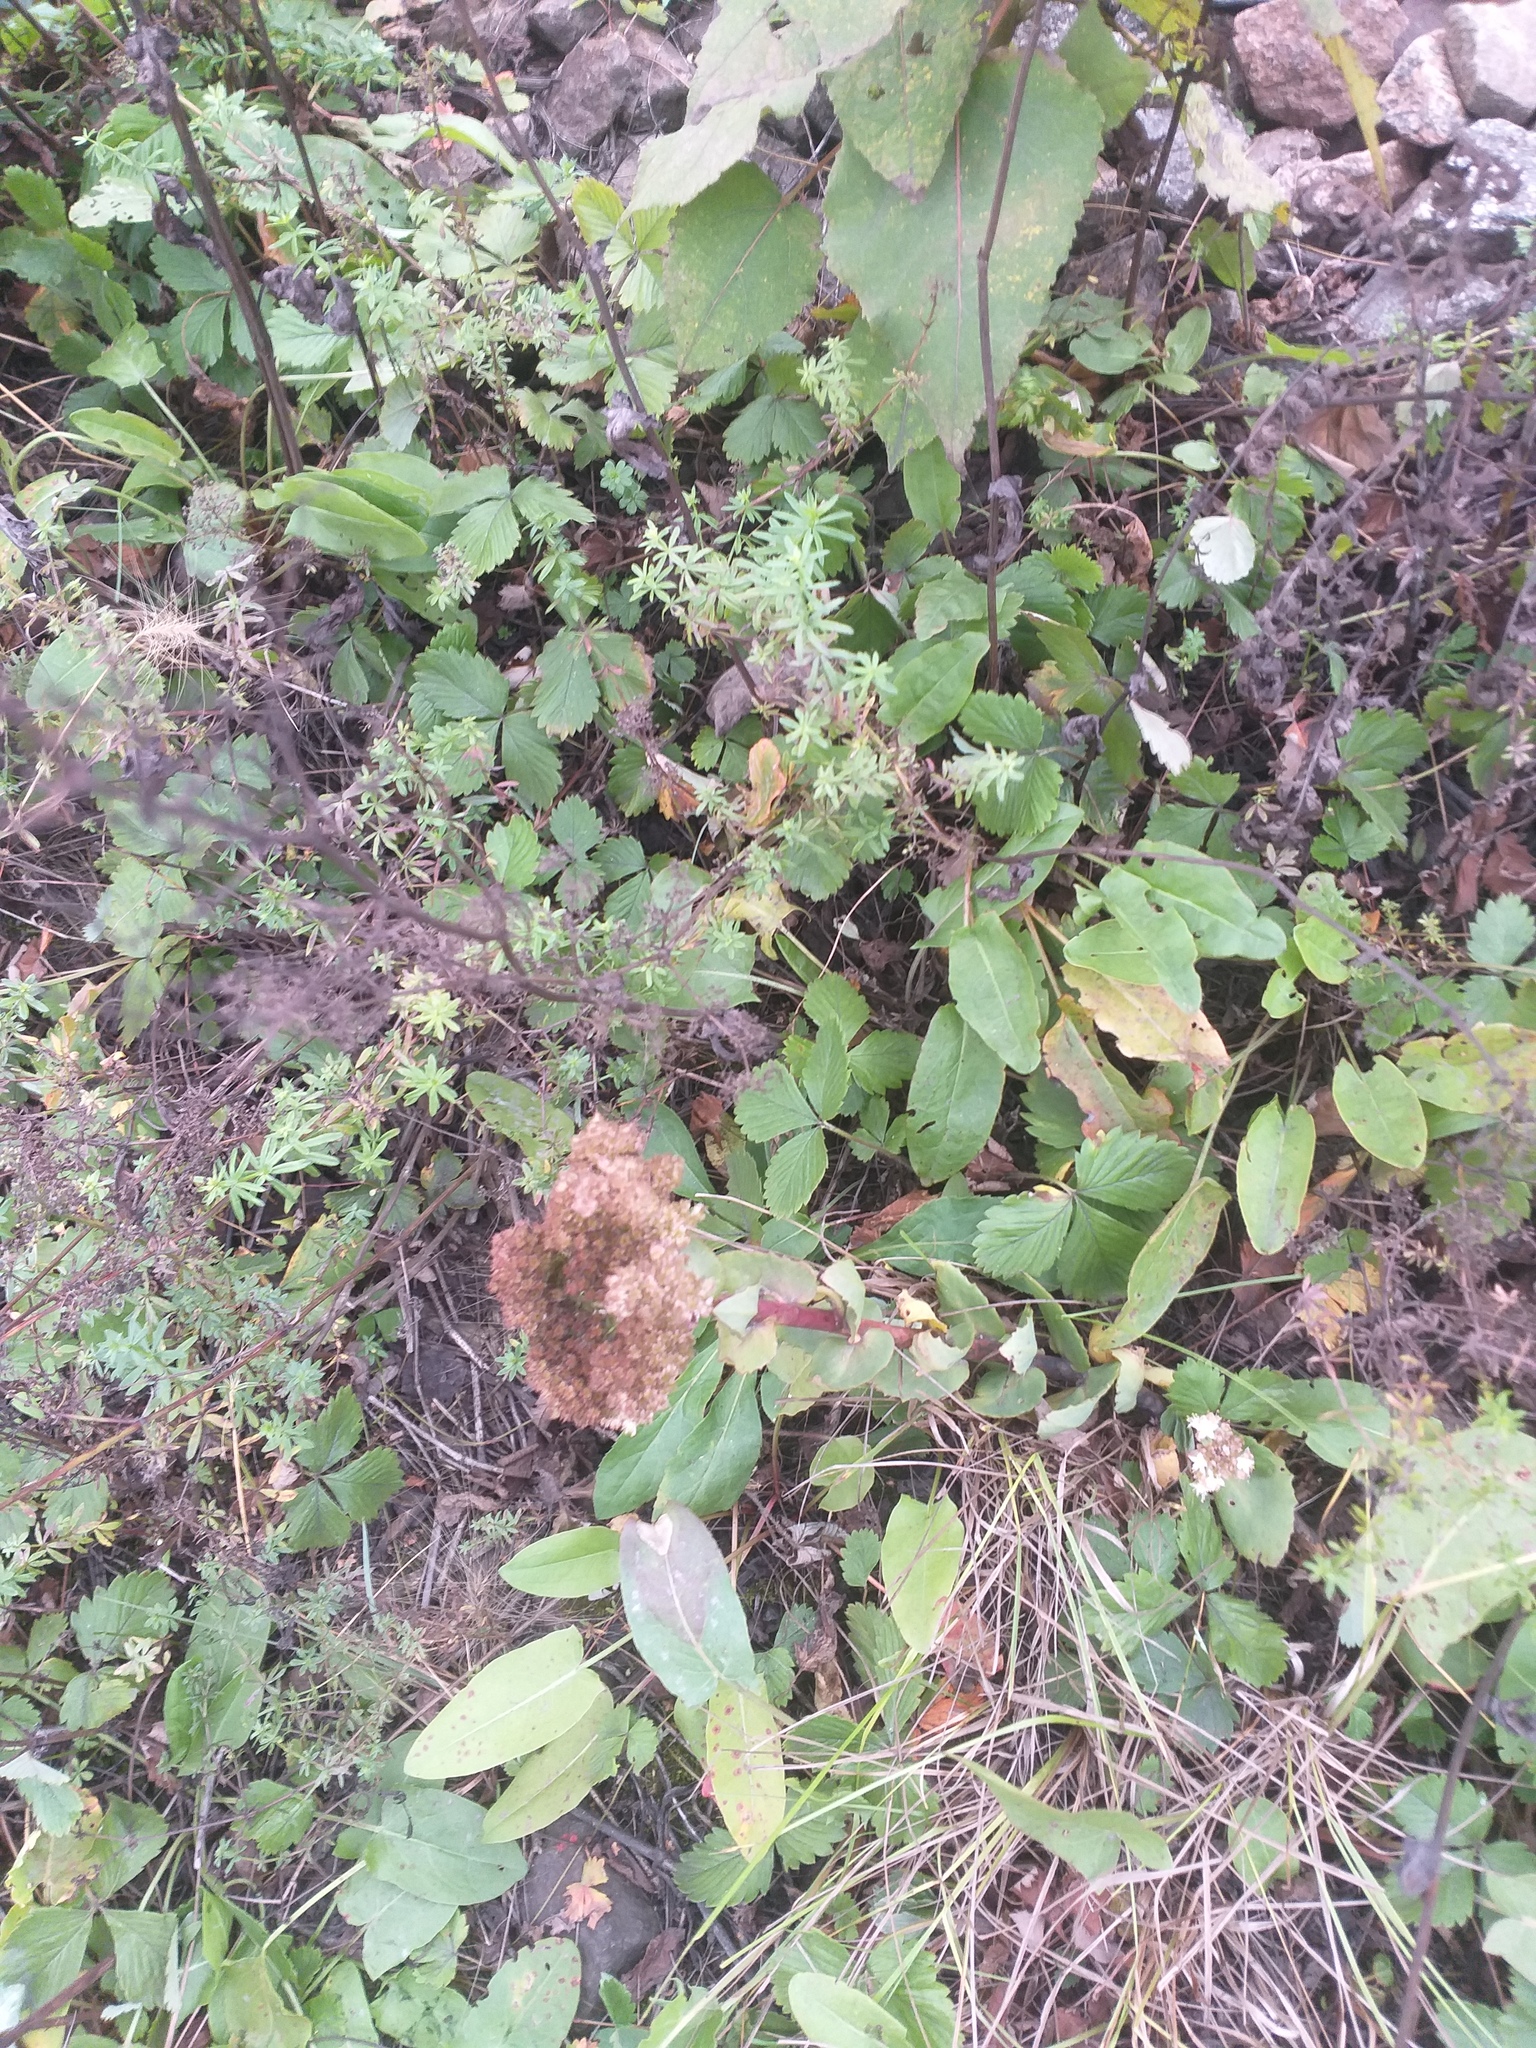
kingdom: Plantae
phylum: Tracheophyta
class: Magnoliopsida
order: Saxifragales
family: Crassulaceae
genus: Hylotelephium
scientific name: Hylotelephium maximum
